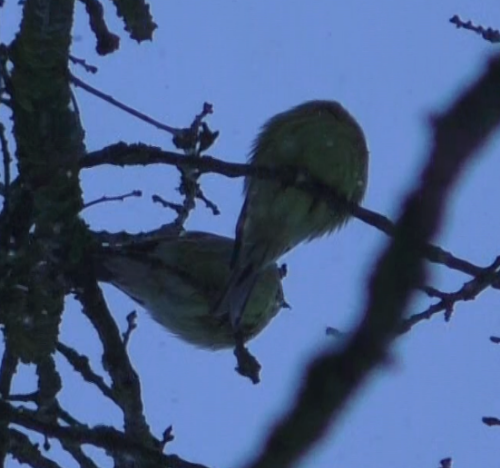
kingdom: Animalia
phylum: Chordata
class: Aves
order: Passeriformes
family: Emberizidae
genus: Emberiza
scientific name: Emberiza citrinella
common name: Yellowhammer
